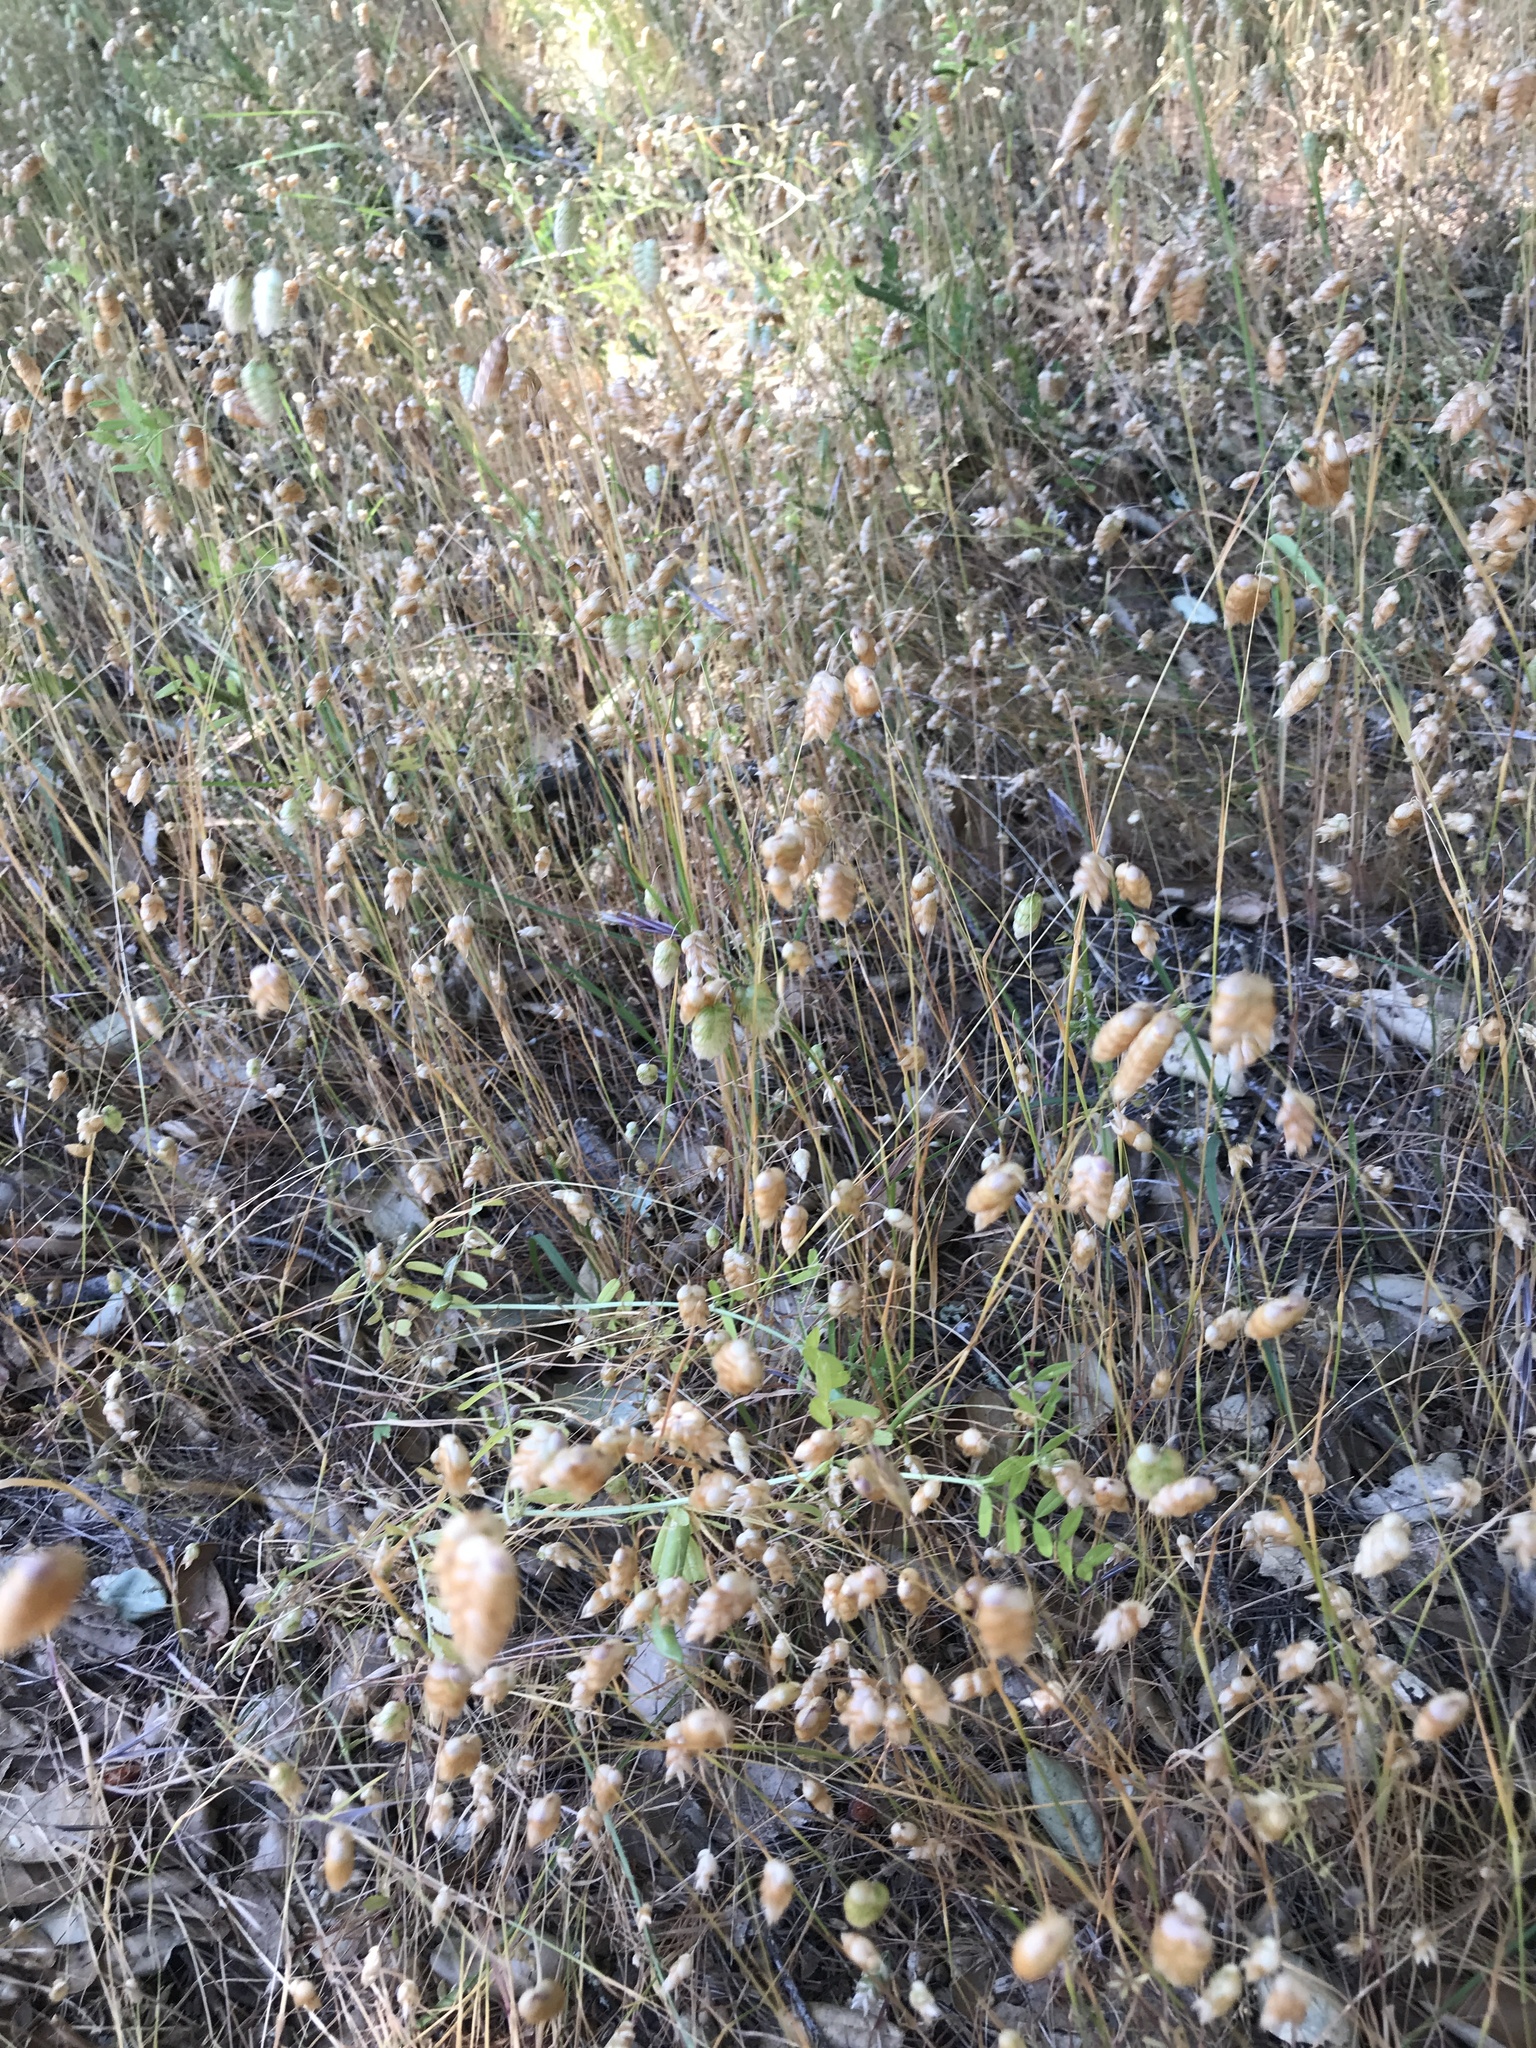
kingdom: Plantae
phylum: Tracheophyta
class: Liliopsida
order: Poales
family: Poaceae
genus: Briza
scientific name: Briza maxima
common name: Big quakinggrass
